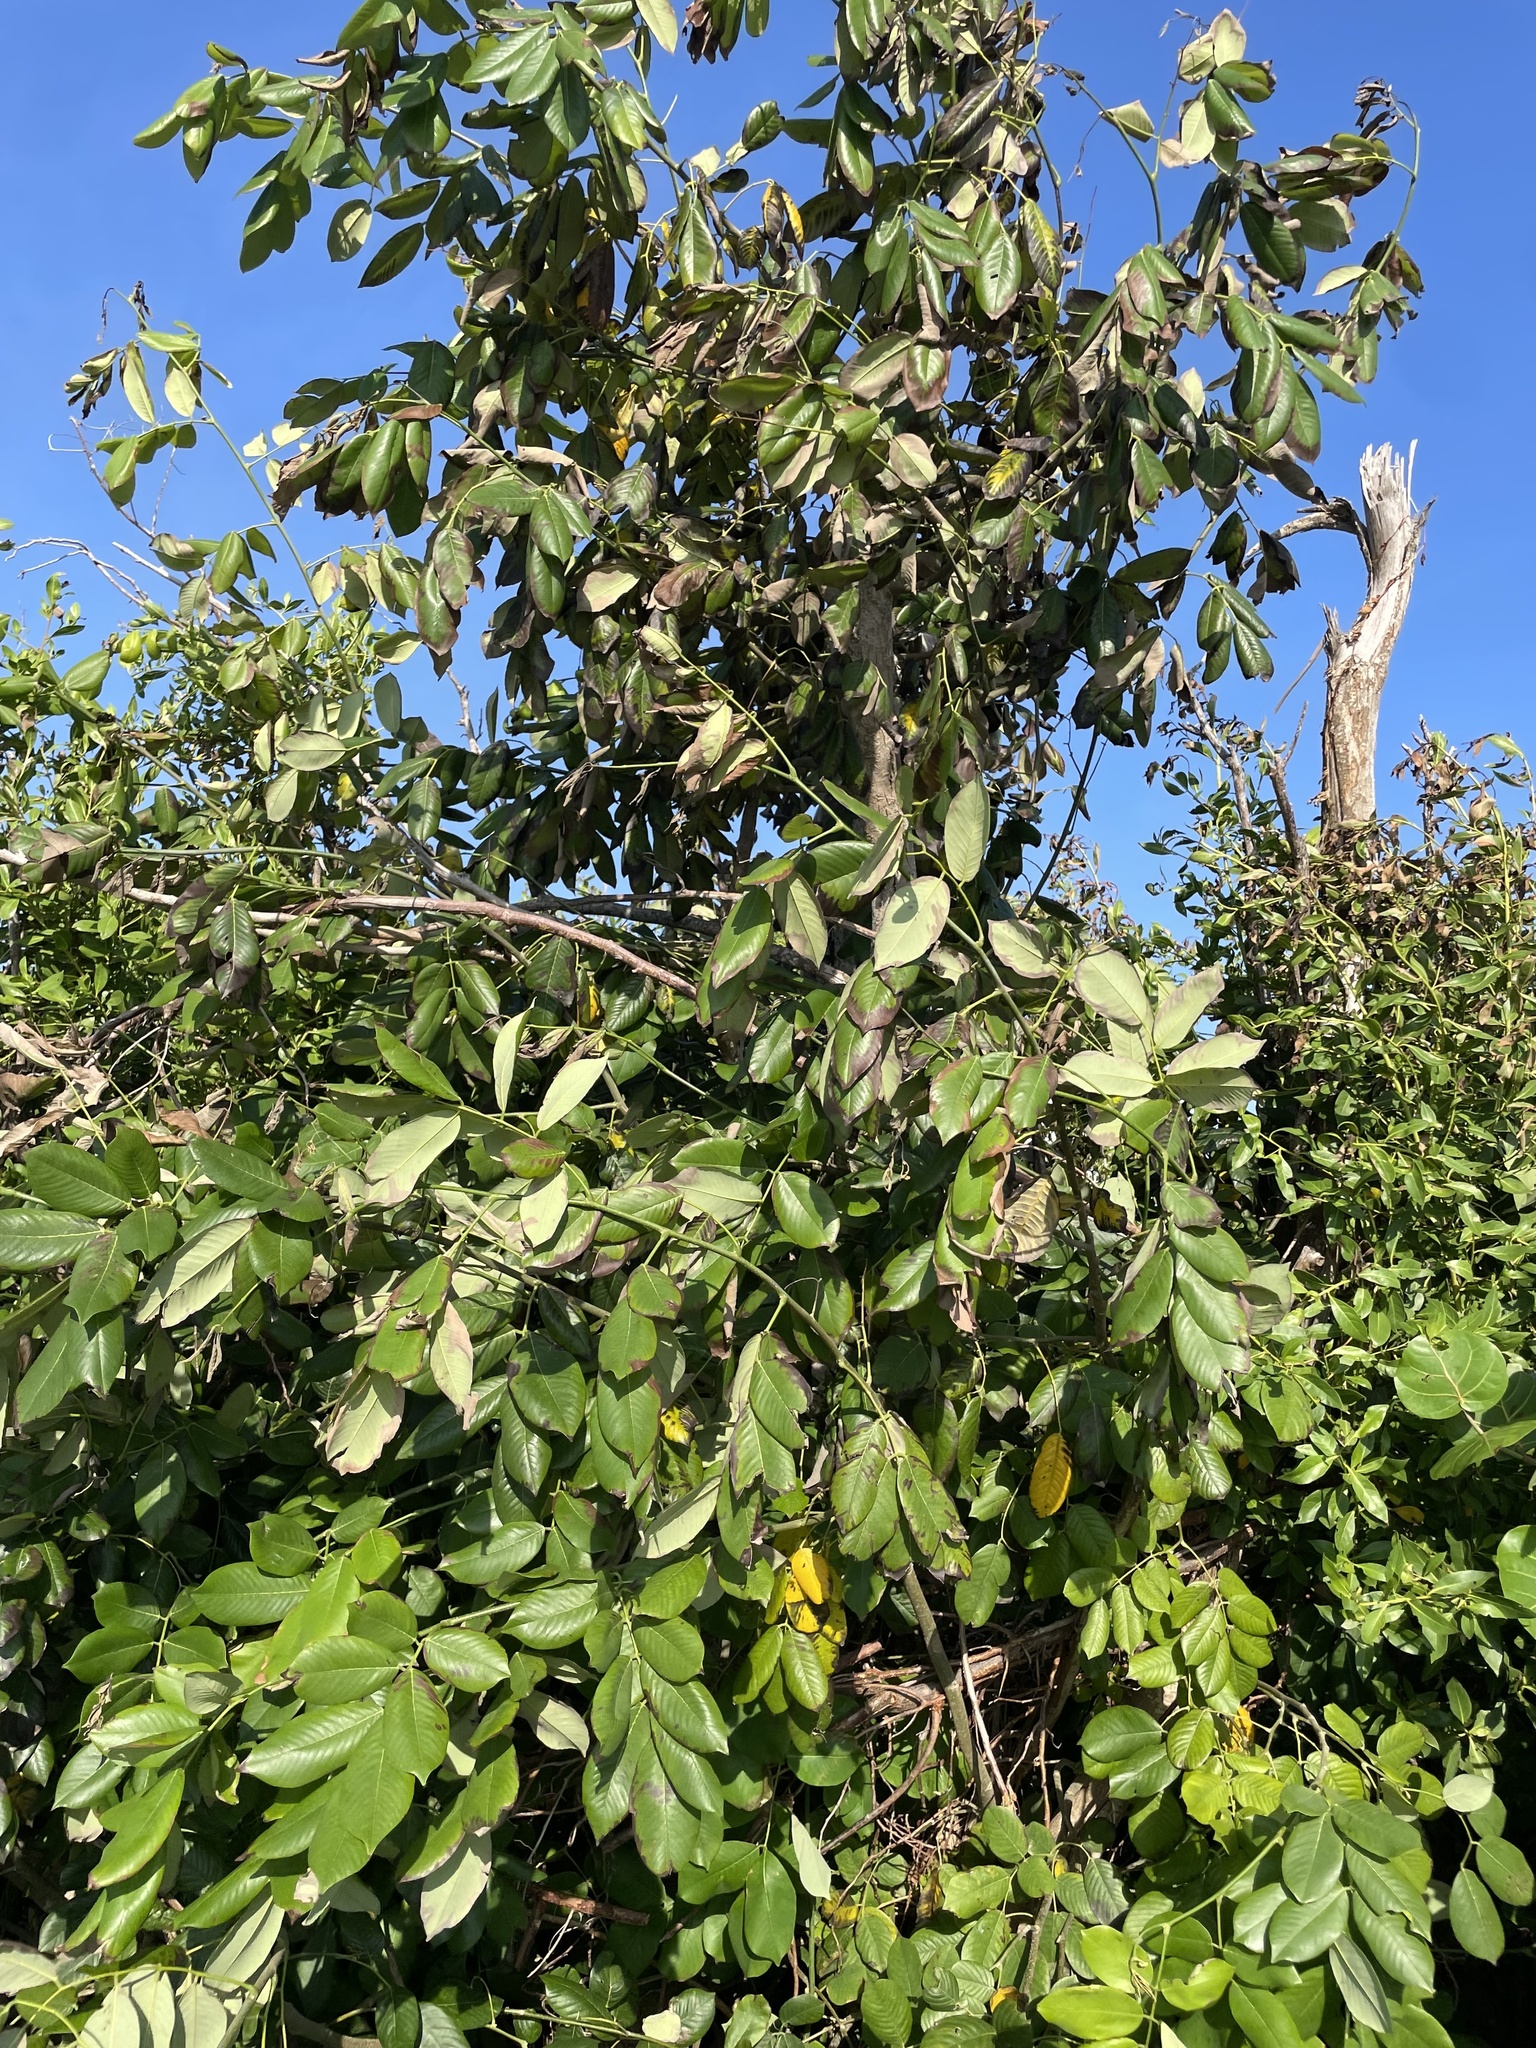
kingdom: Plantae
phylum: Tracheophyta
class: Magnoliopsida
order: Fabales
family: Fabaceae
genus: Piscidia
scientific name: Piscidia piscipula
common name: Florida fishpoison tree
